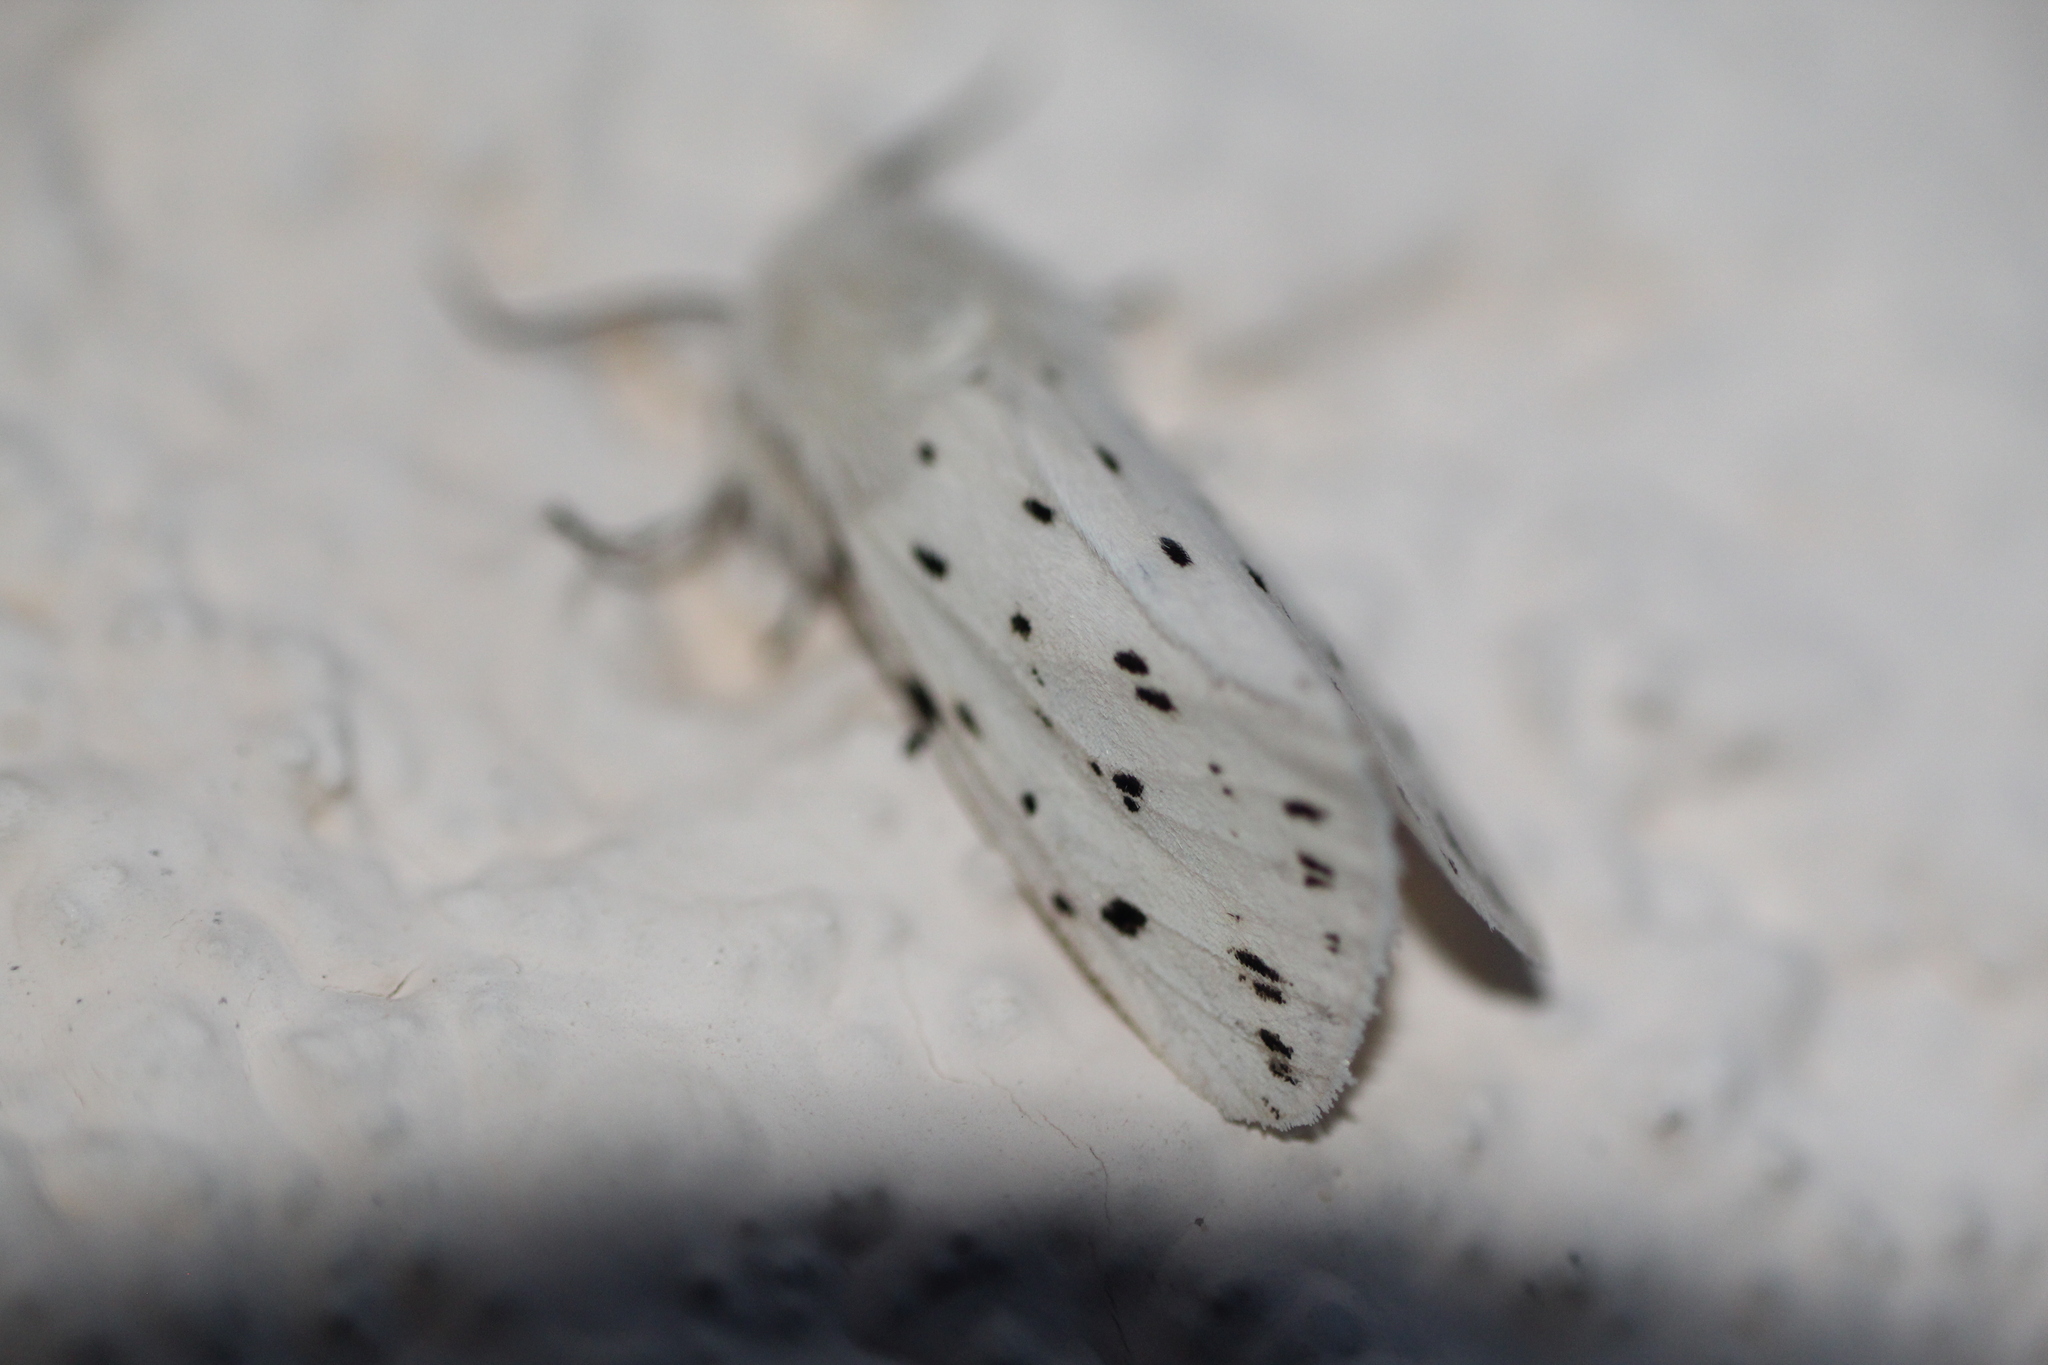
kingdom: Animalia
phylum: Arthropoda
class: Insecta
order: Lepidoptera
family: Erebidae
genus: Spilosoma
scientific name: Spilosoma lubricipeda
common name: White ermine
